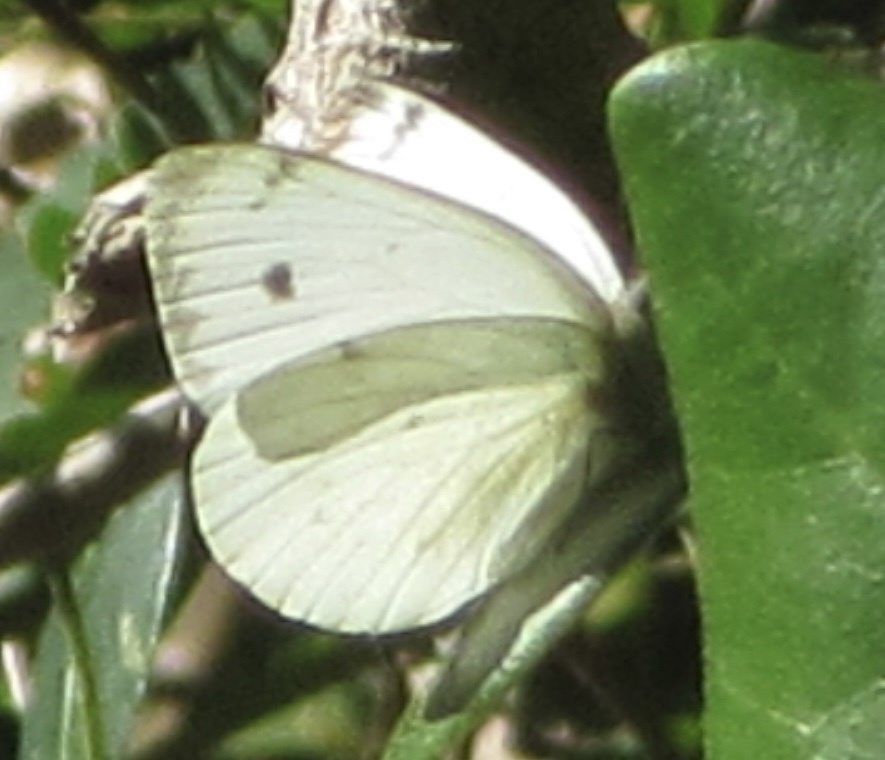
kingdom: Animalia
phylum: Arthropoda
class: Insecta
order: Lepidoptera
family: Pieridae
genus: Dixeia
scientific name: Dixeia charina
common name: African small white
